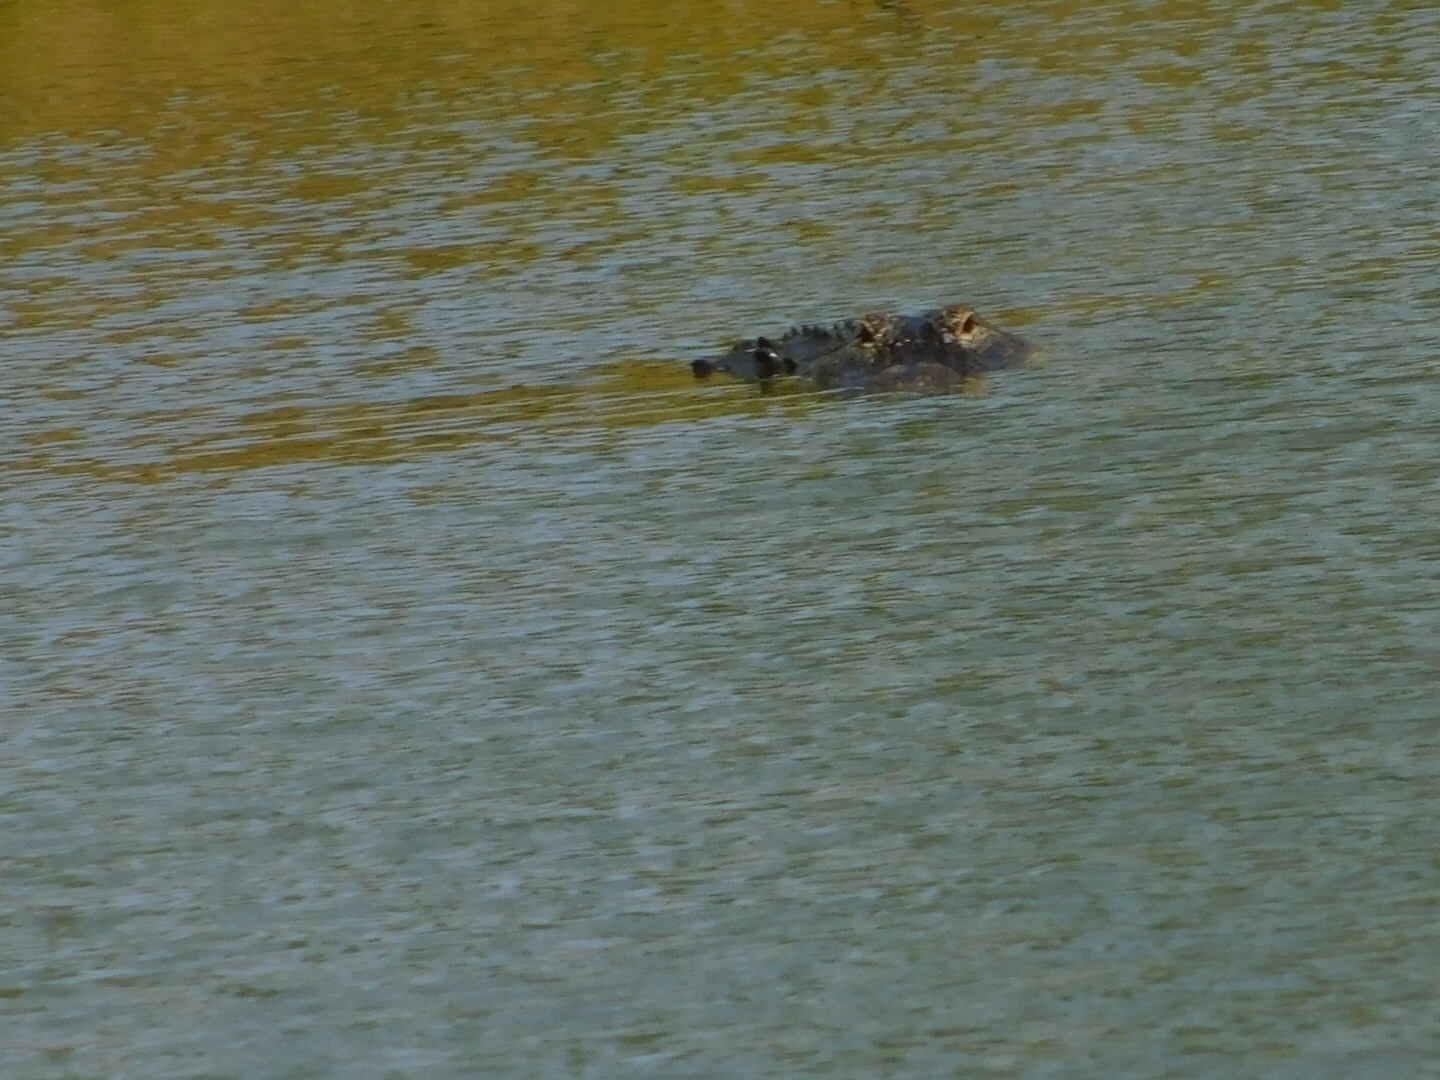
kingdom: Animalia
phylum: Chordata
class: Crocodylia
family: Alligatoridae
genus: Alligator
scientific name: Alligator mississippiensis
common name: American alligator
